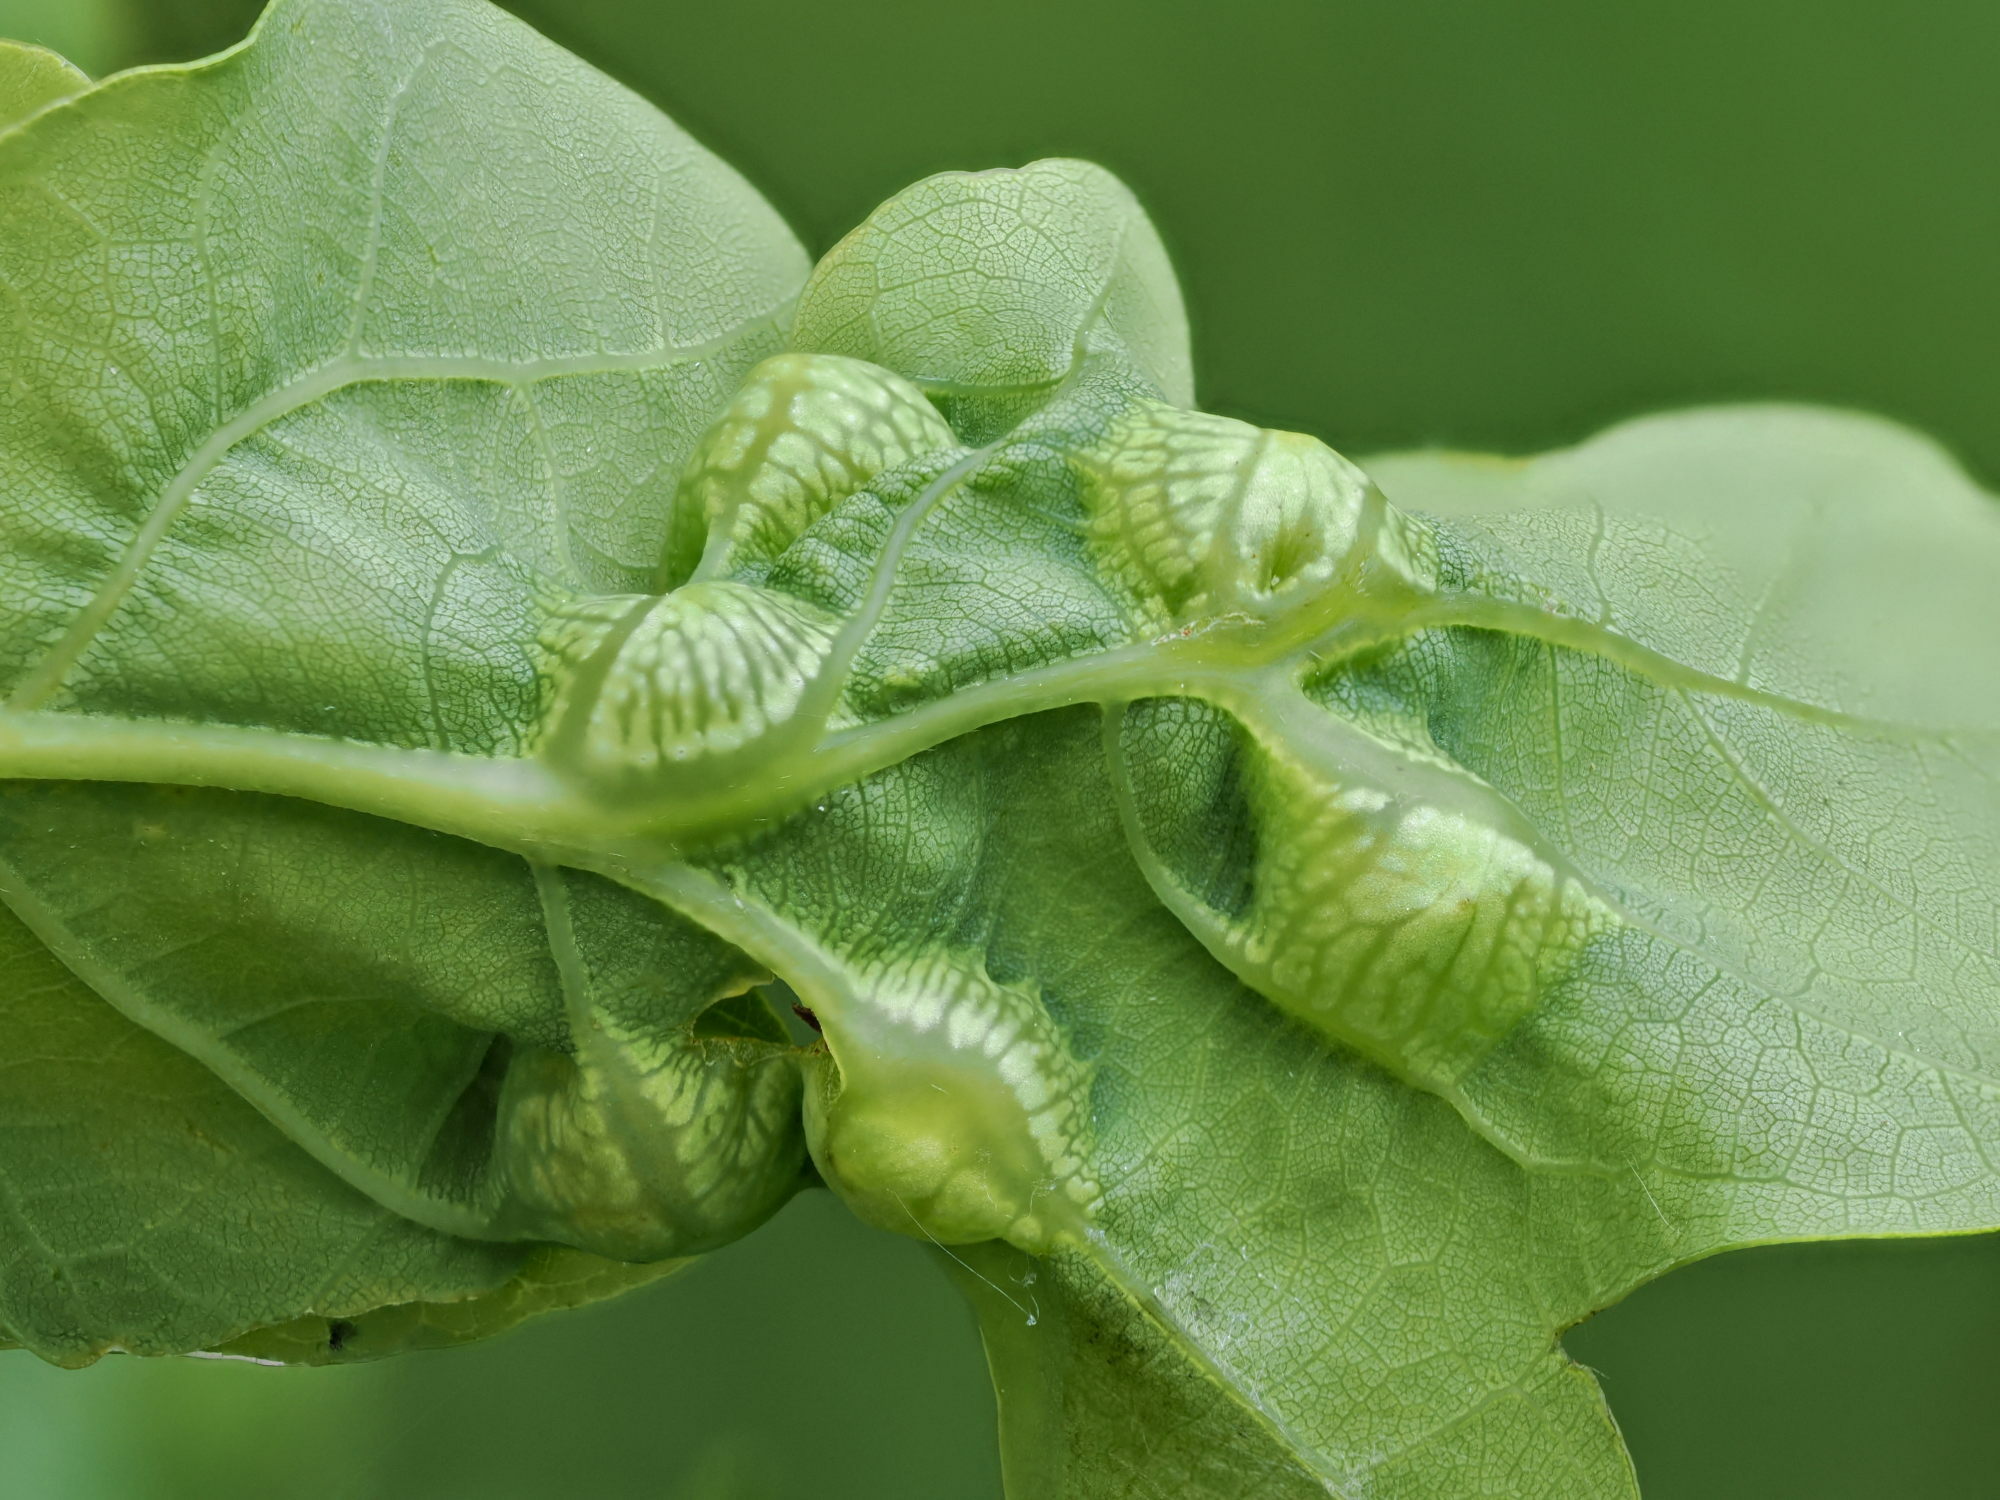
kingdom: Animalia
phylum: Arthropoda
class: Insecta
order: Hymenoptera
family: Cynipidae
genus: Andricus
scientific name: Andricus curvator
